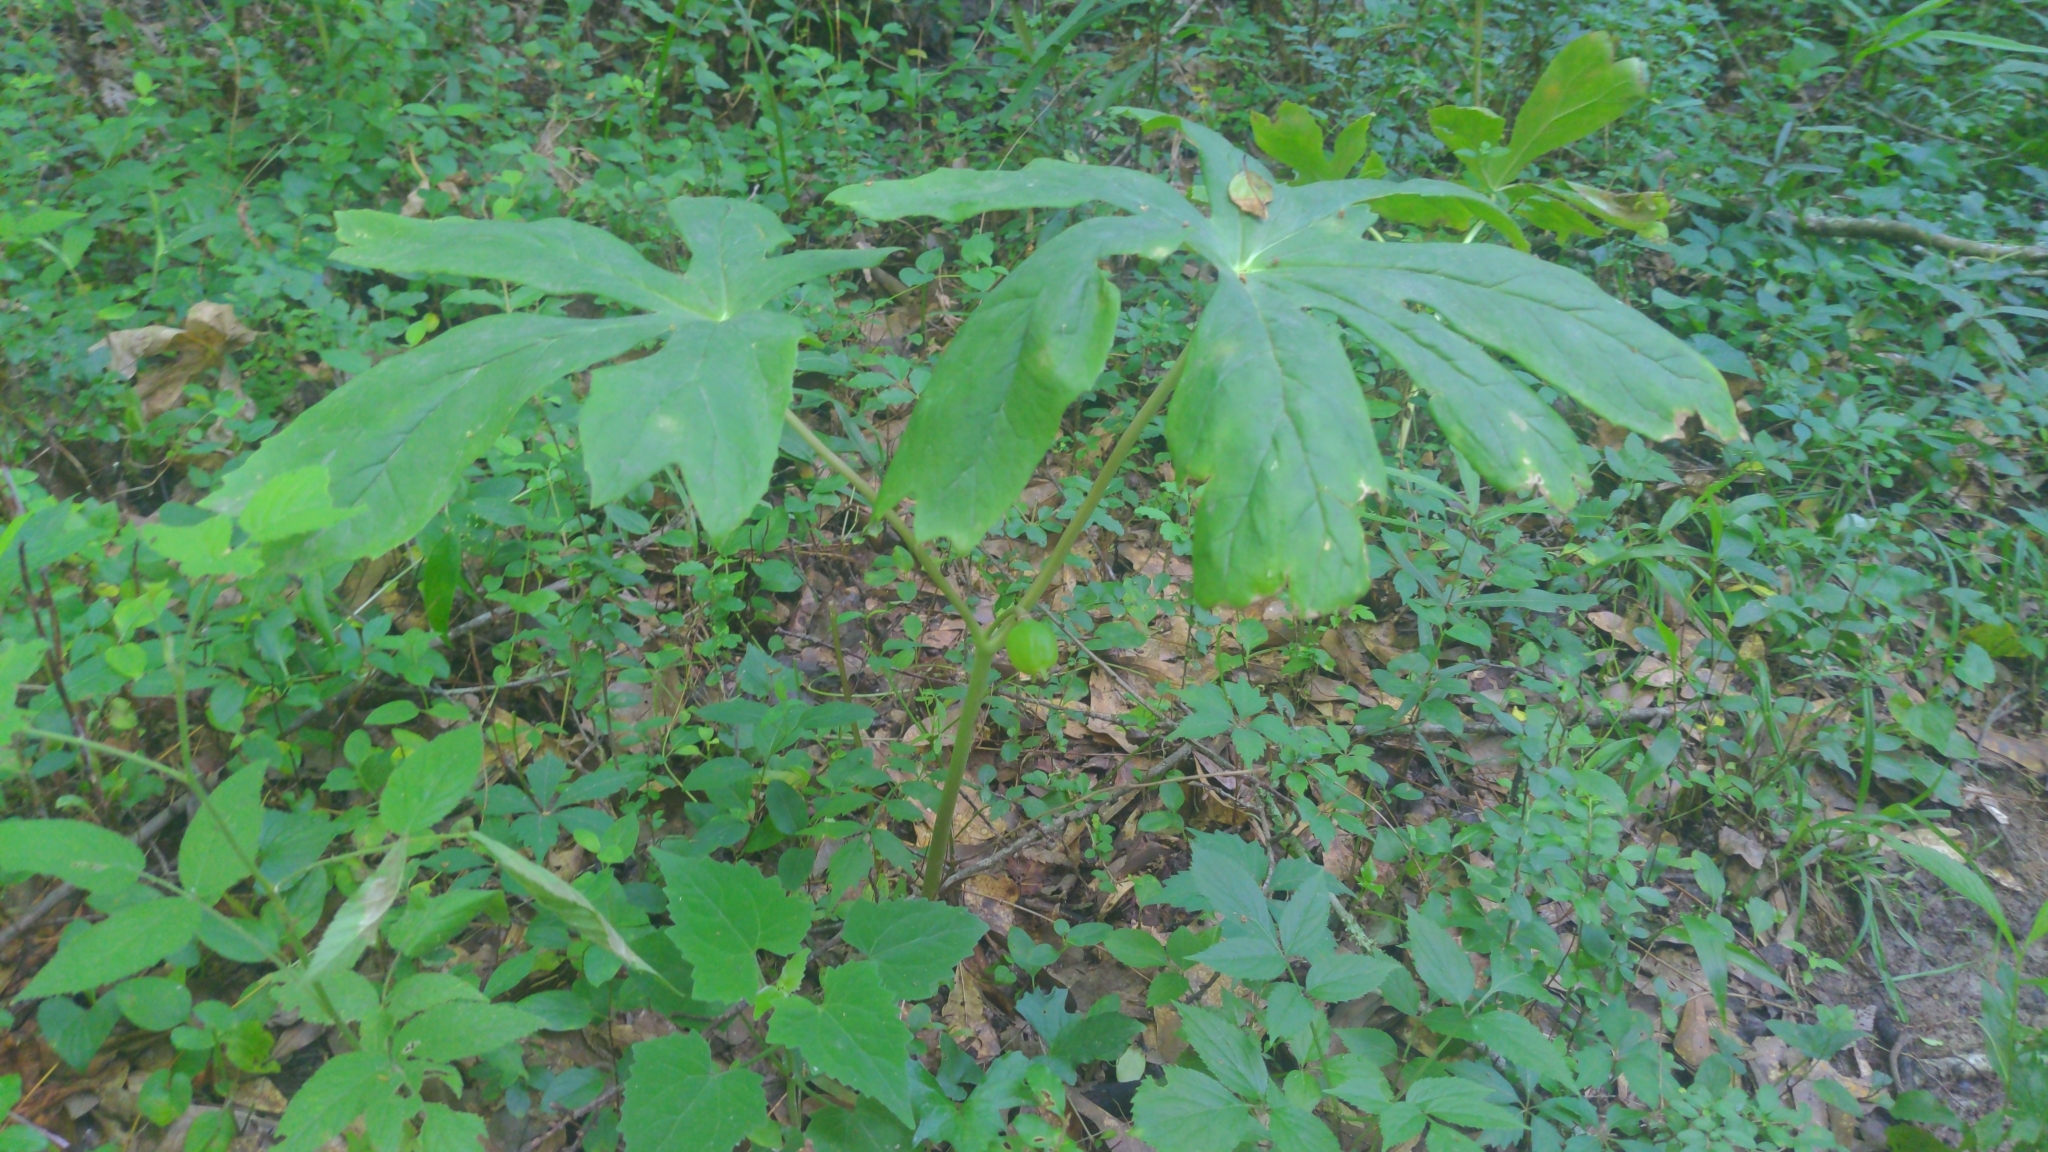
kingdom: Plantae
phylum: Tracheophyta
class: Magnoliopsida
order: Ranunculales
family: Berberidaceae
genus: Podophyllum
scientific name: Podophyllum peltatum
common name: Wild mandrake
